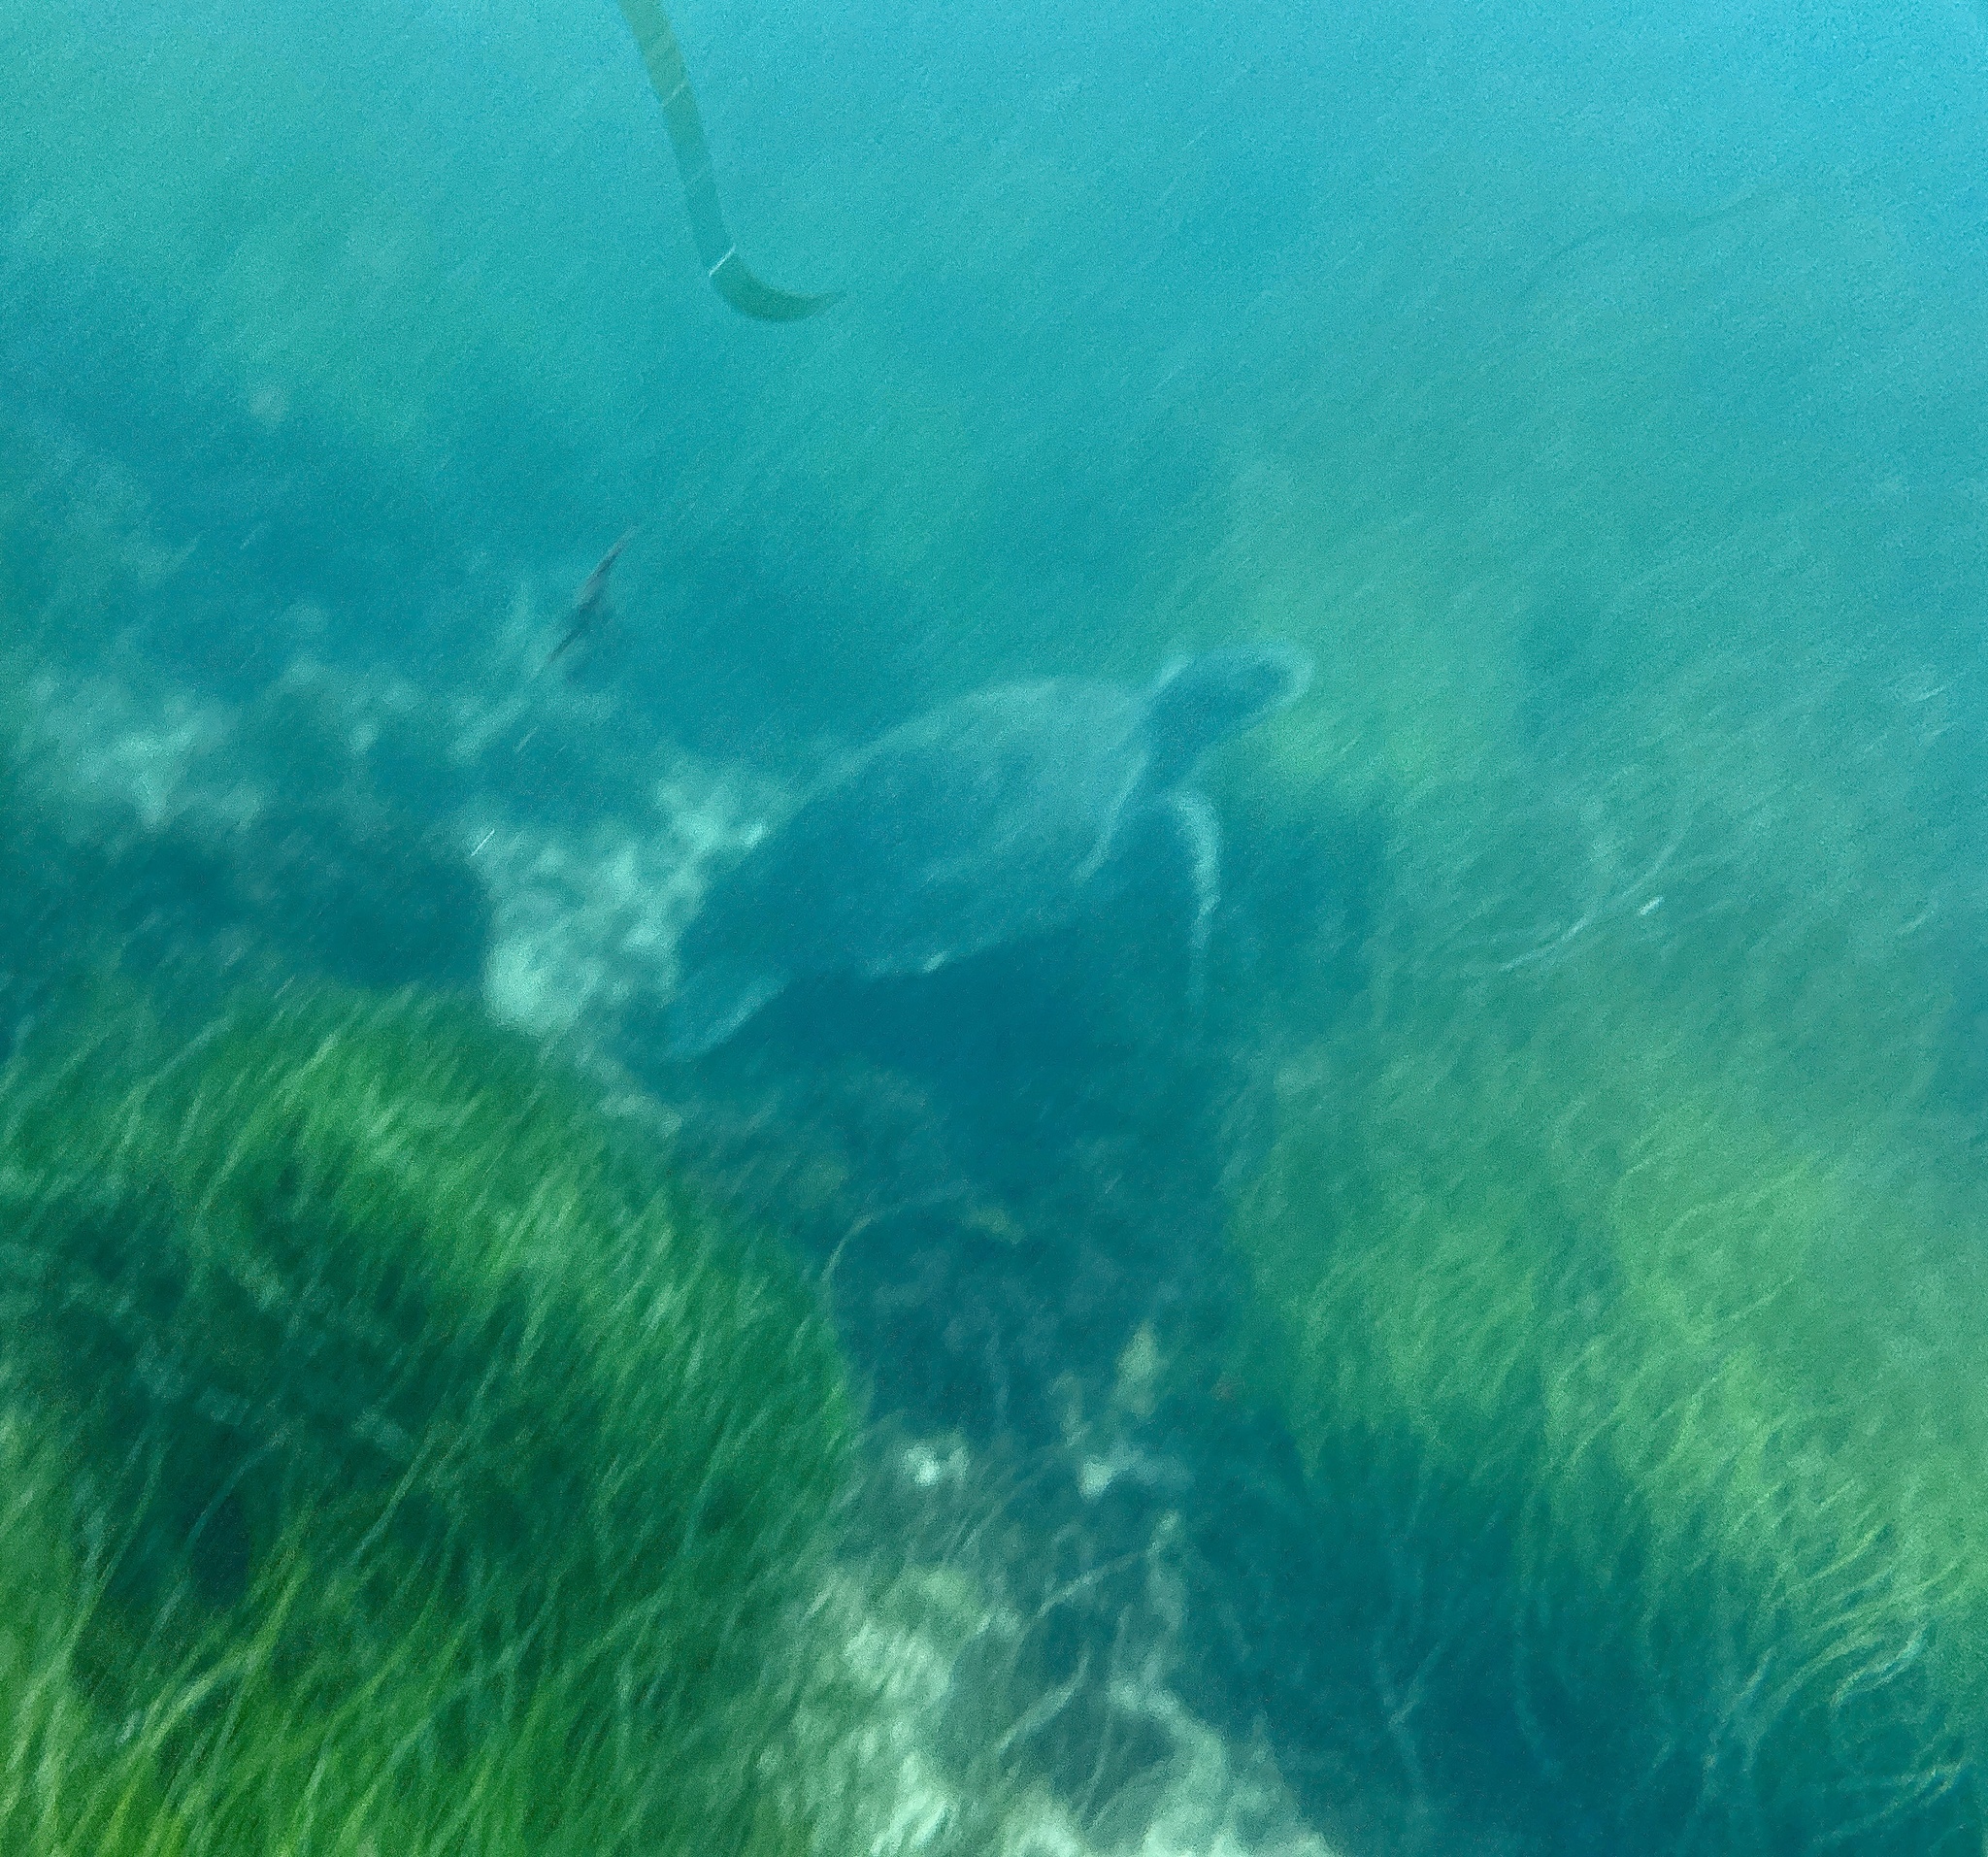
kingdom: Animalia
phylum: Chordata
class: Testudines
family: Cheloniidae
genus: Chelonia
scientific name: Chelonia mydas
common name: Green turtle
